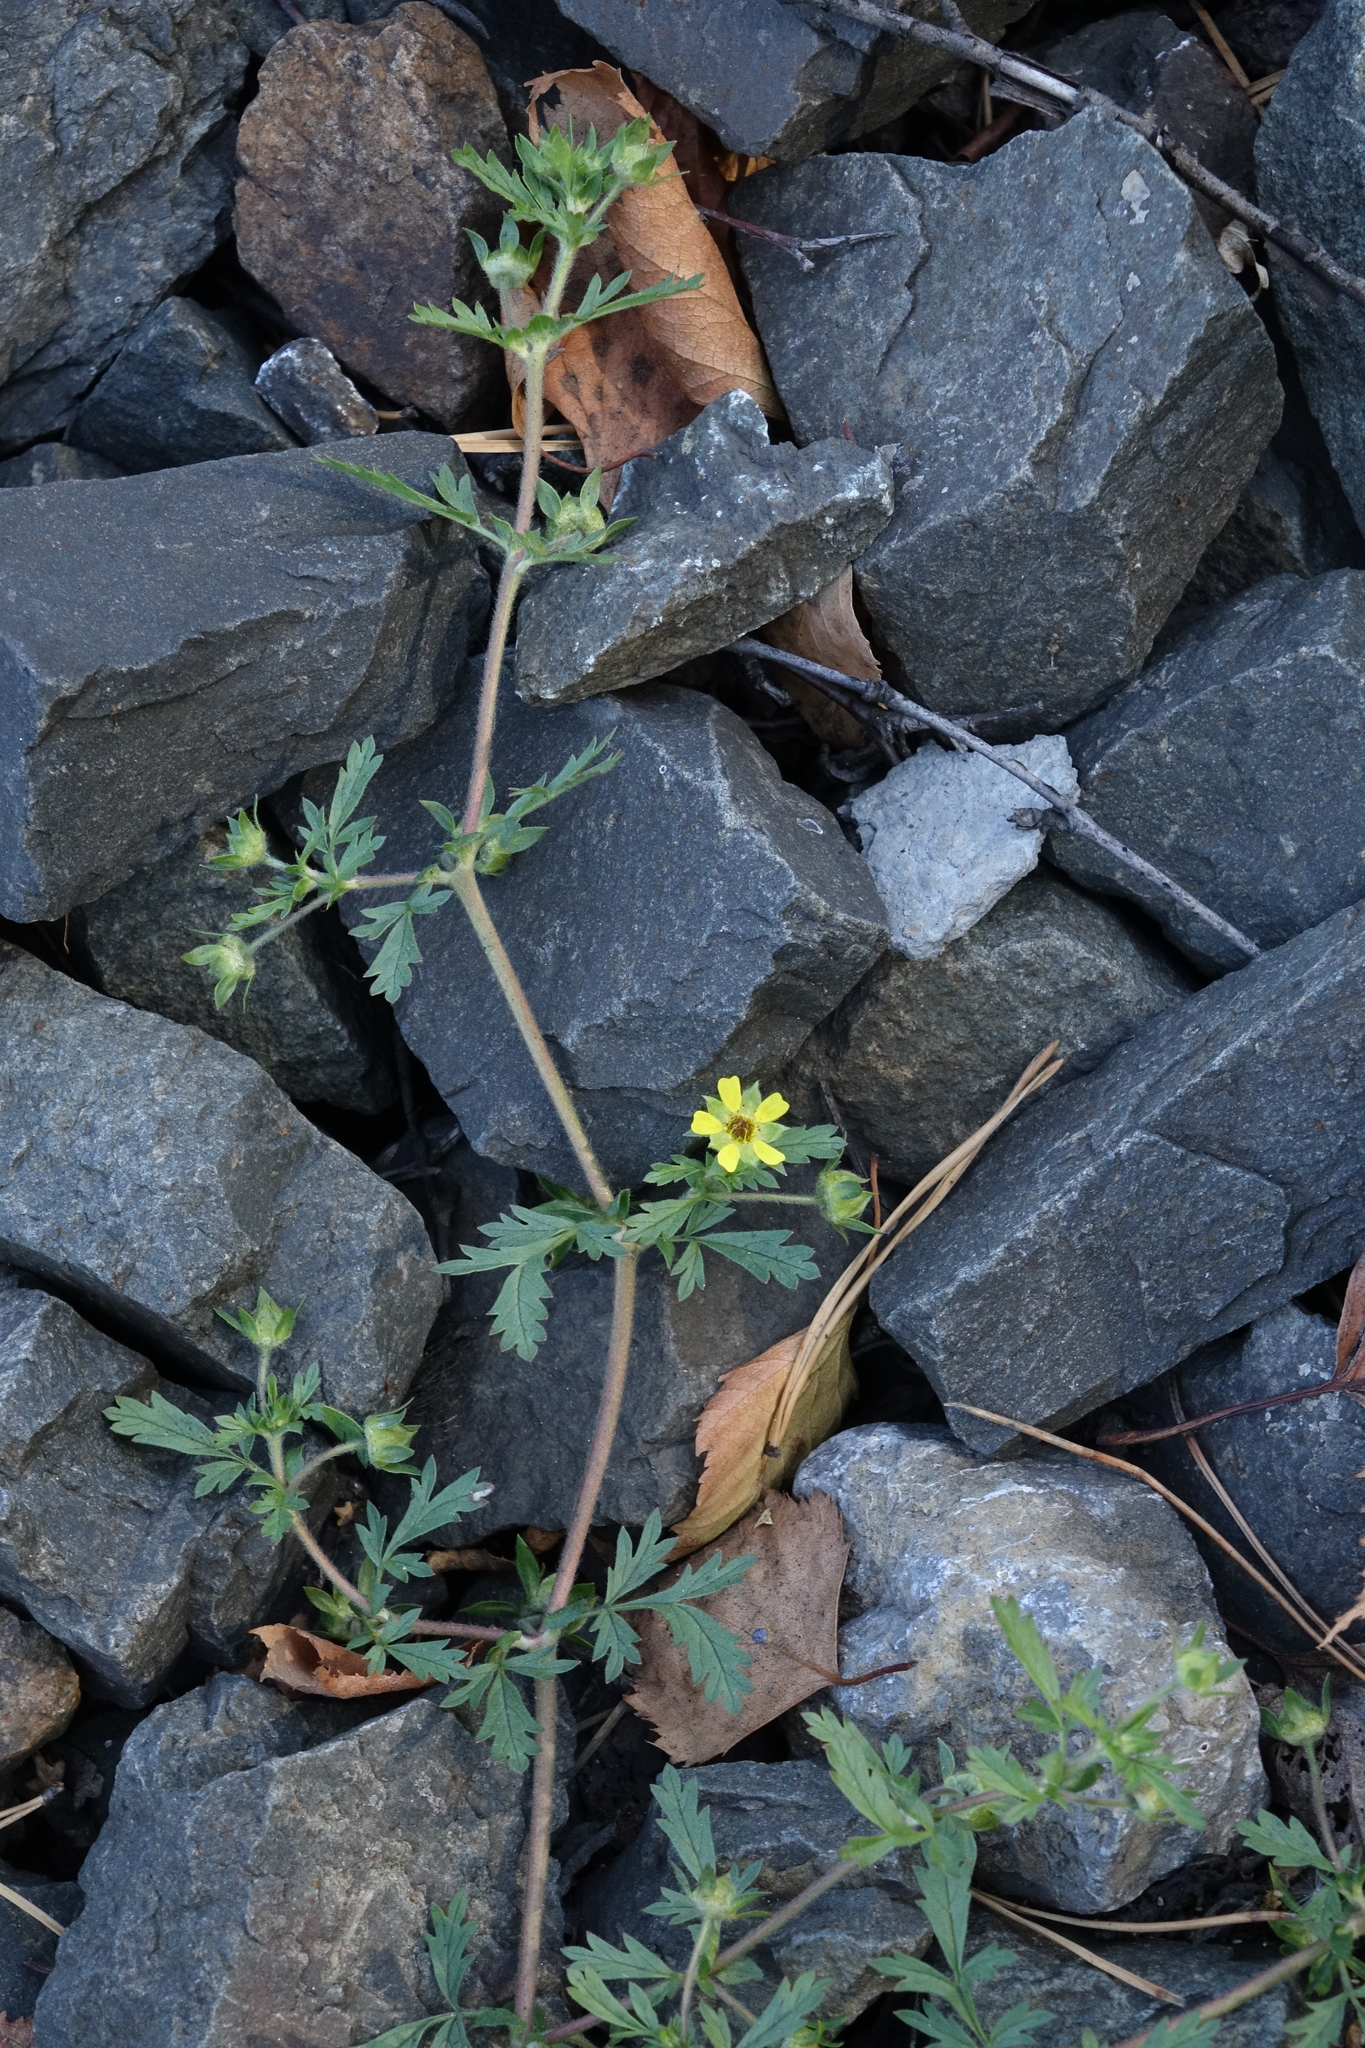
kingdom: Plantae
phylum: Tracheophyta
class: Magnoliopsida
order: Rosales
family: Rosaceae
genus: Potentilla
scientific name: Potentilla supina
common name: Prostrate cinquefoil
